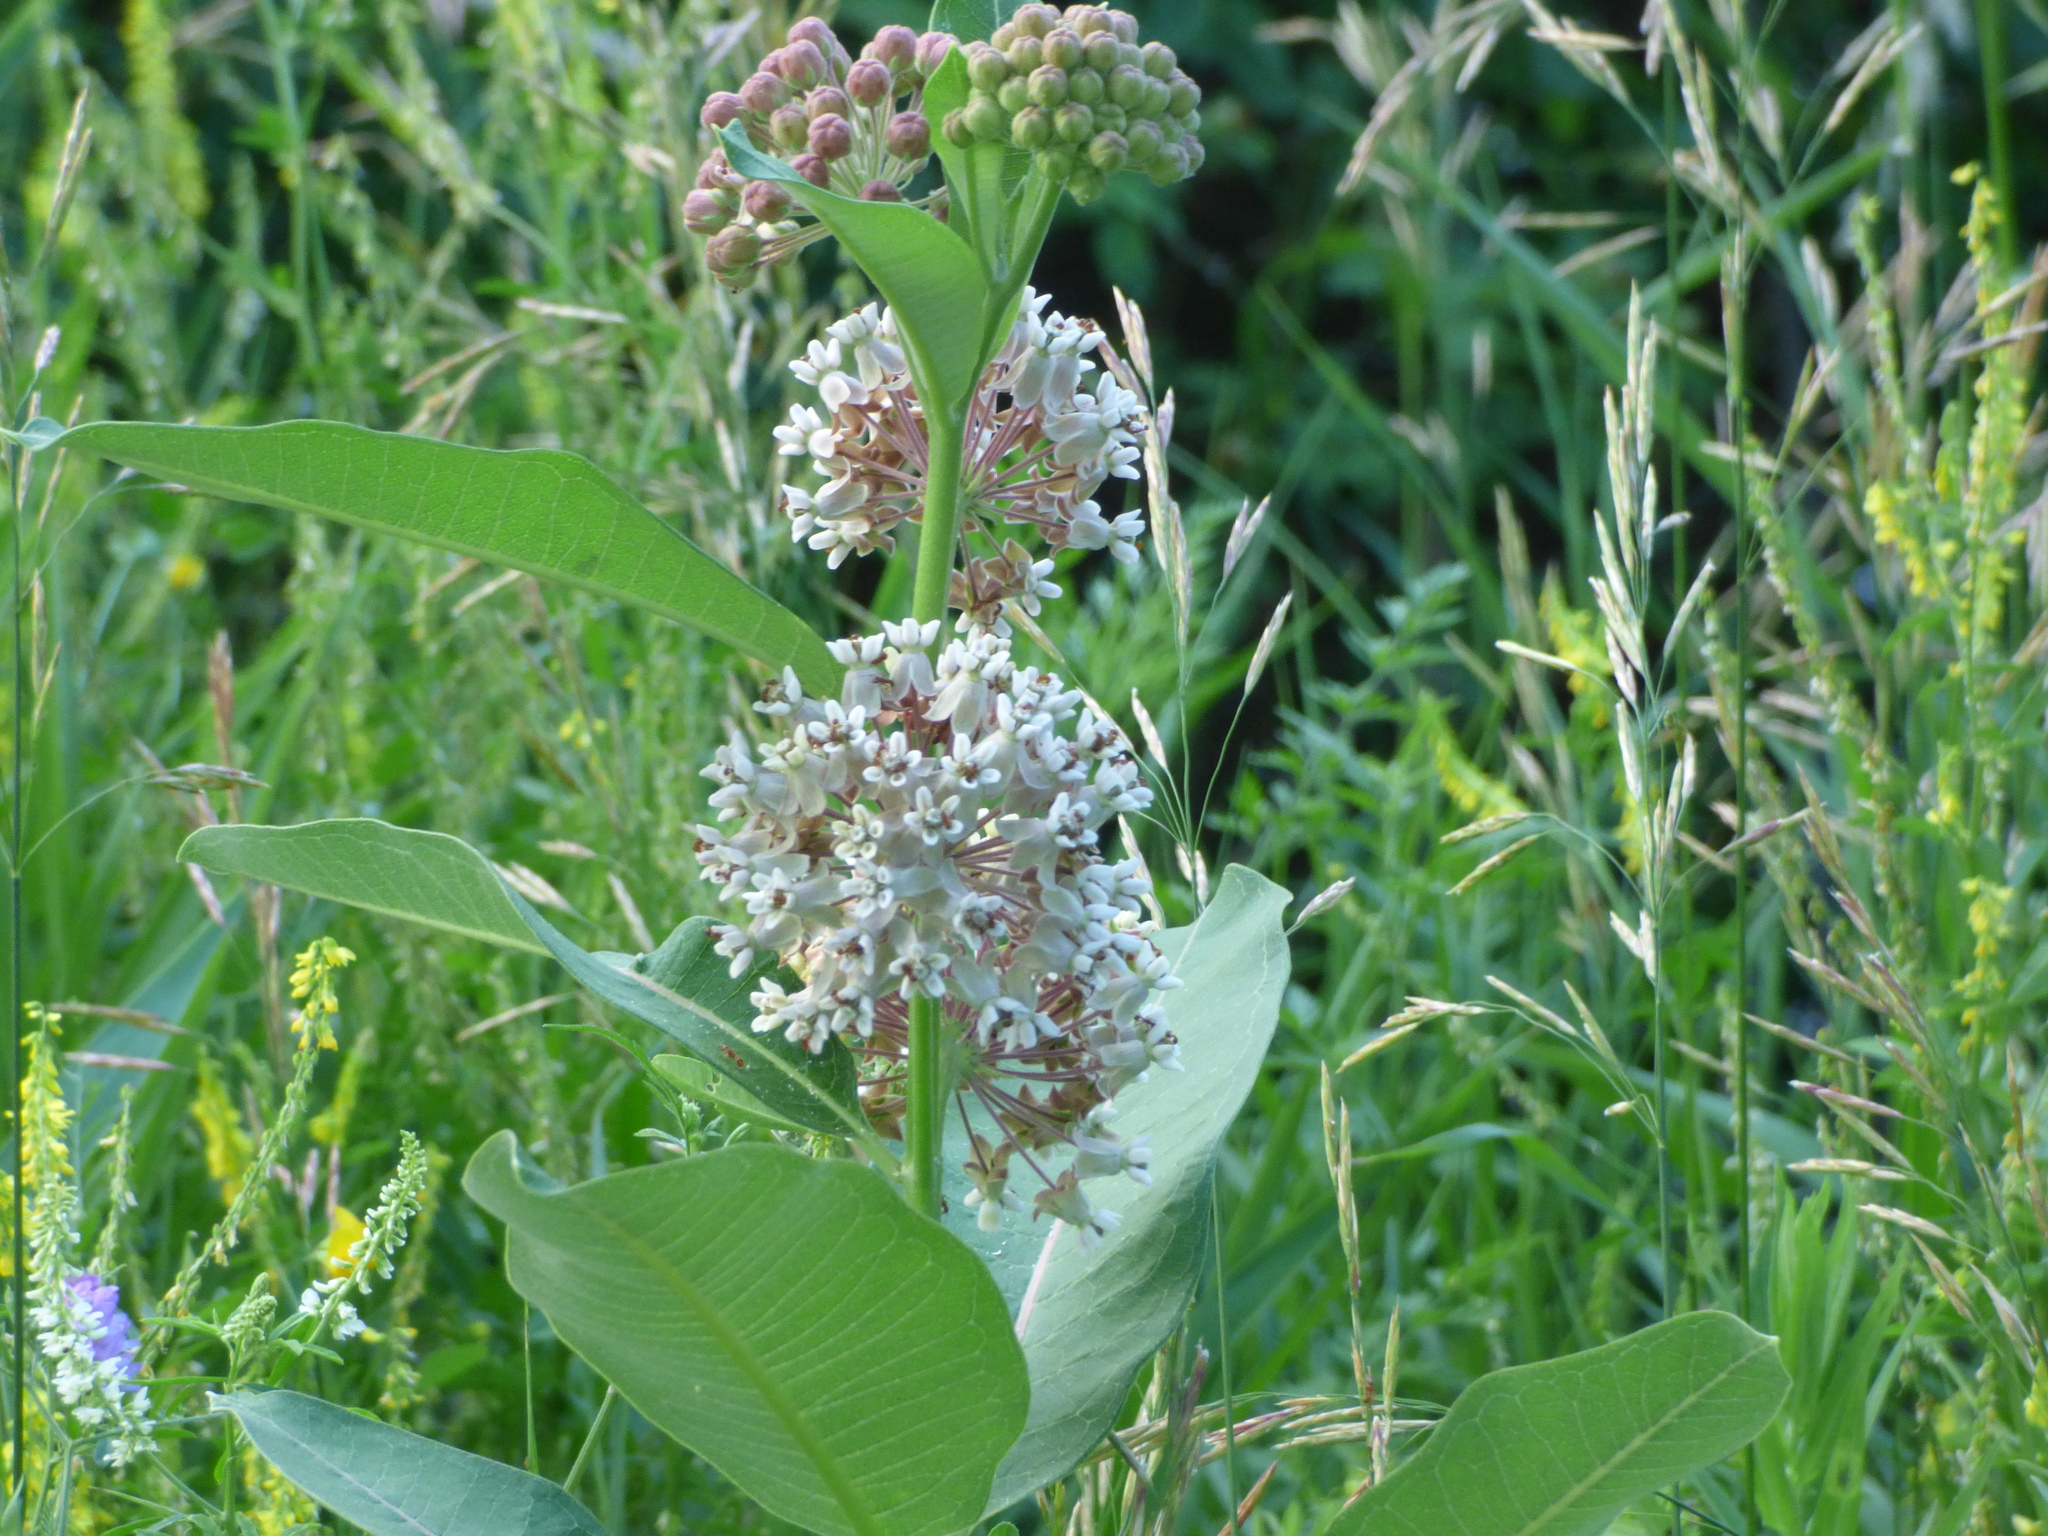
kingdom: Plantae
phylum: Tracheophyta
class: Magnoliopsida
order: Gentianales
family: Apocynaceae
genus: Asclepias
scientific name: Asclepias syriaca
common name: Common milkweed
